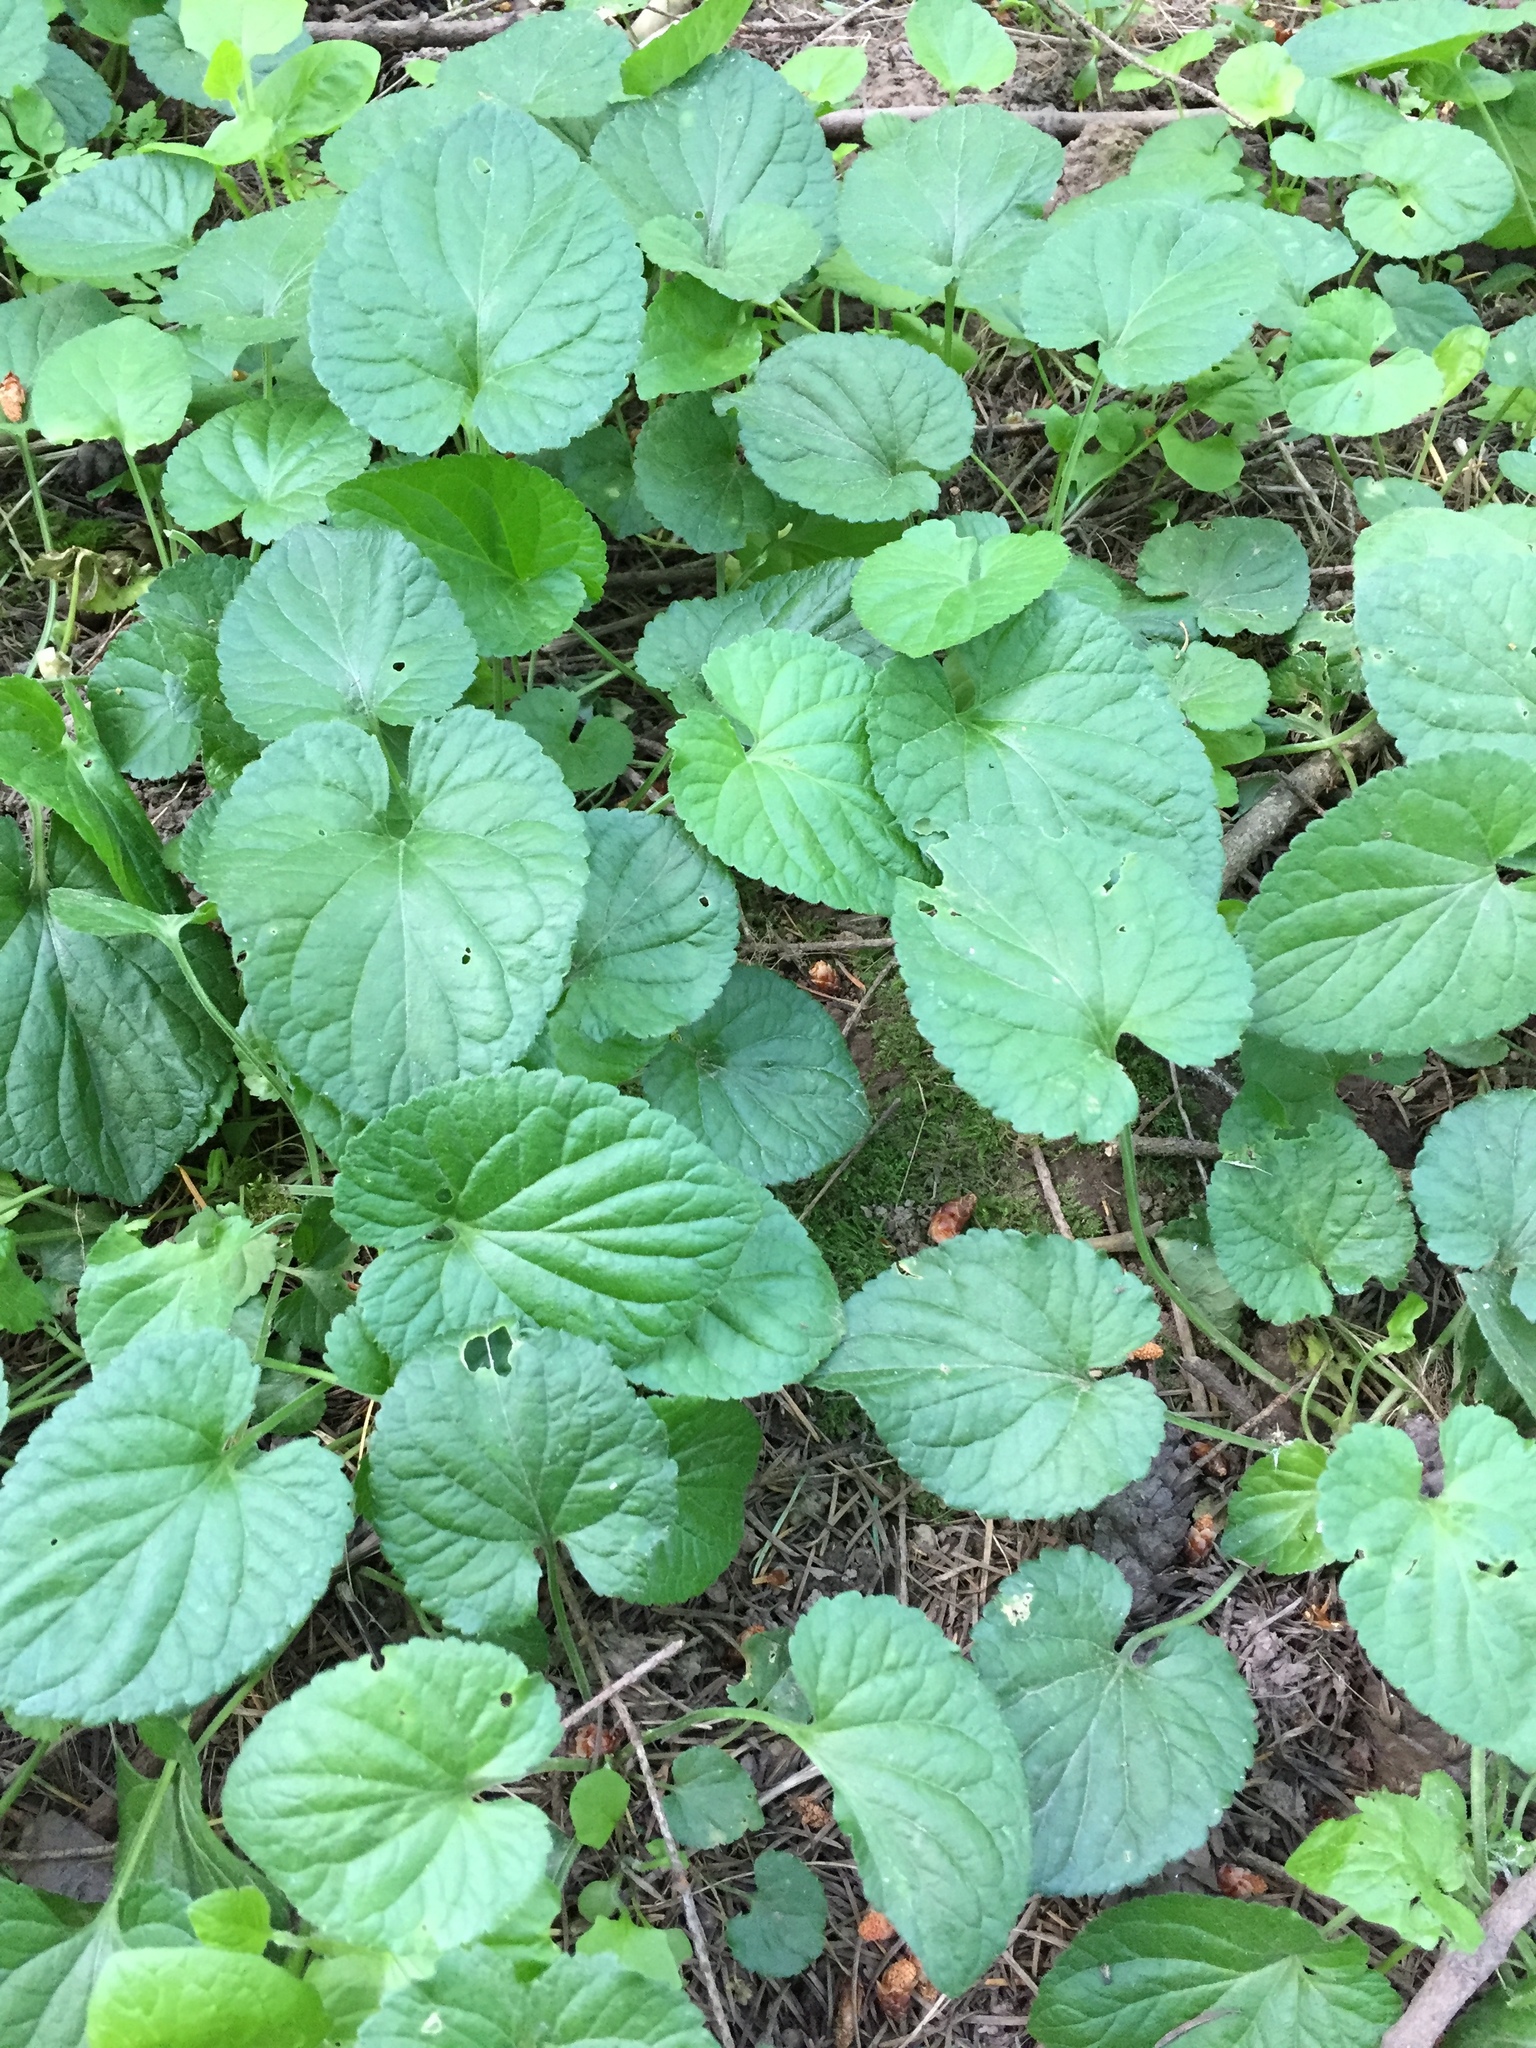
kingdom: Plantae
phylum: Tracheophyta
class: Magnoliopsida
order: Malpighiales
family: Violaceae
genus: Viola
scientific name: Viola odorata
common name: Sweet violet
